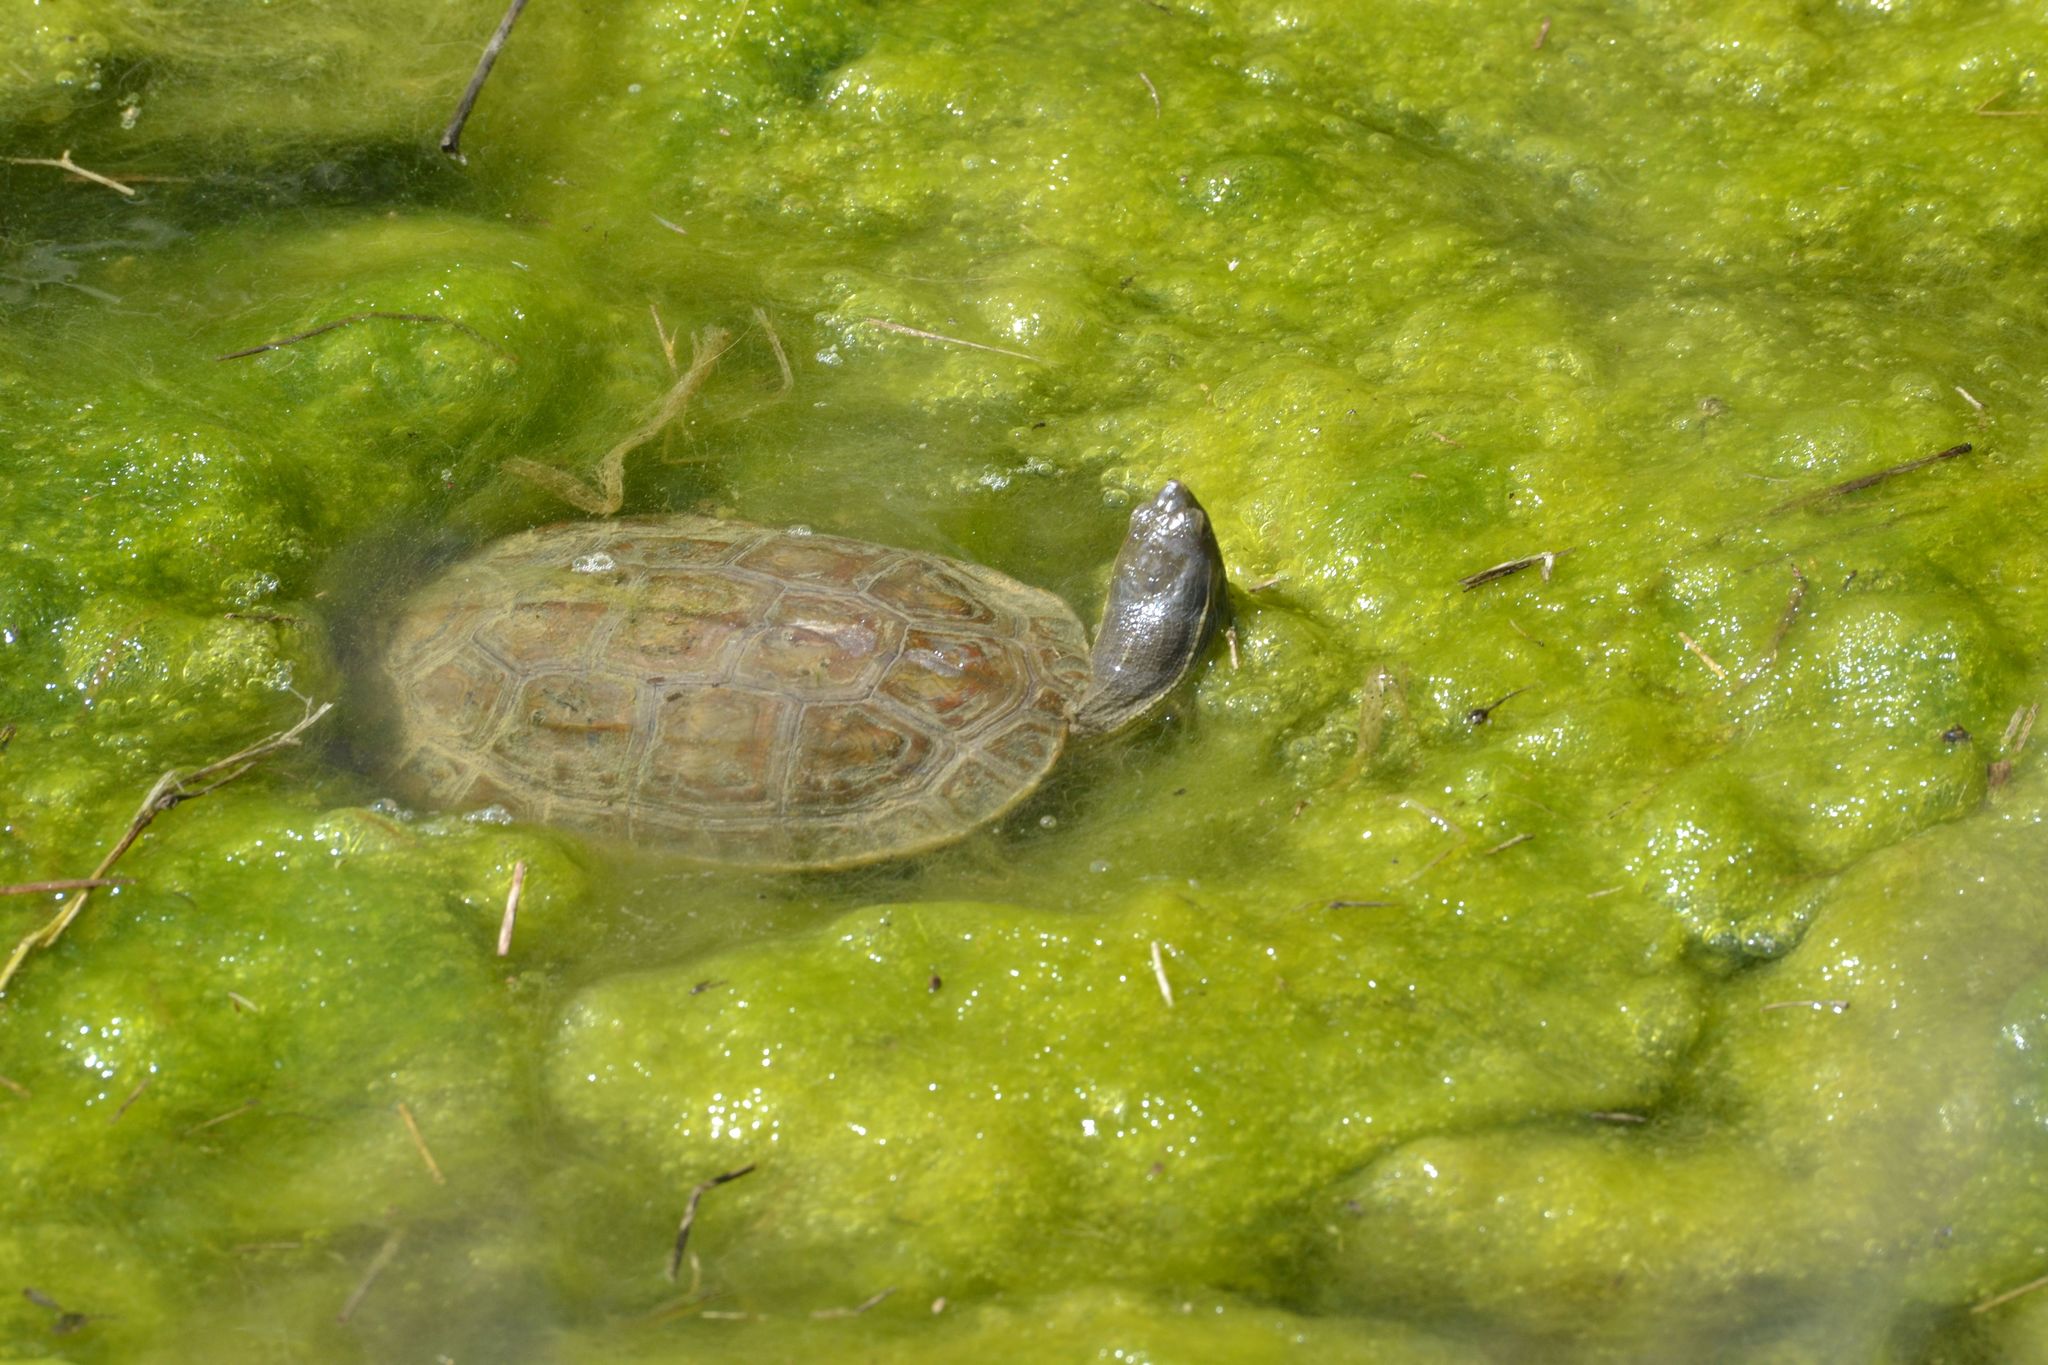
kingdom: Animalia
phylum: Chordata
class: Testudines
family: Geoemydidae
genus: Mauremys
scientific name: Mauremys rivulata
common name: Western caspian turtle
